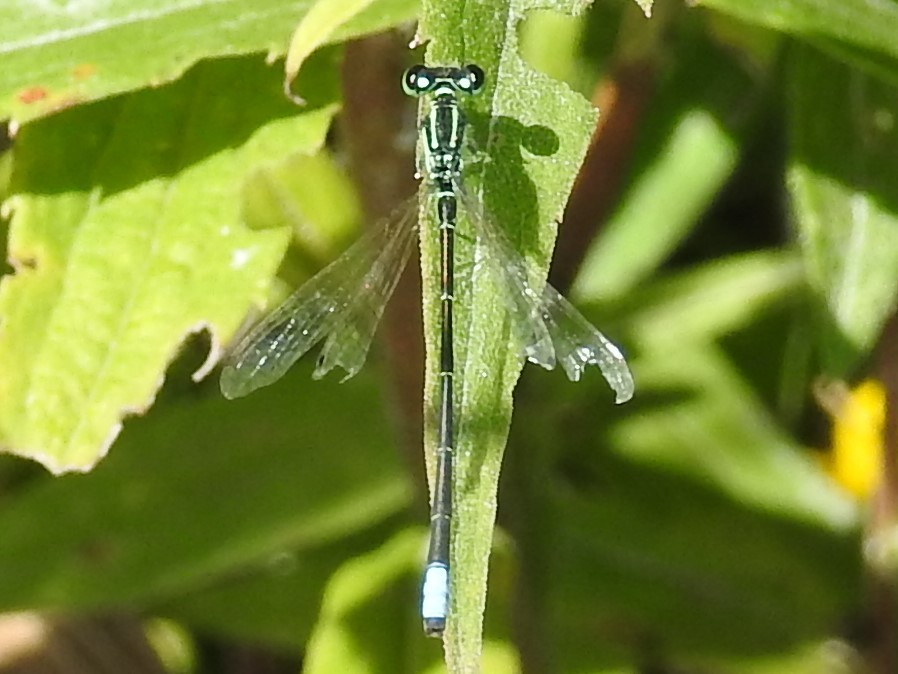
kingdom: Animalia
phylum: Arthropoda
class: Insecta
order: Odonata
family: Coenagrionidae
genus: Ischnura
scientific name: Ischnura verticalis
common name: Eastern forktail
